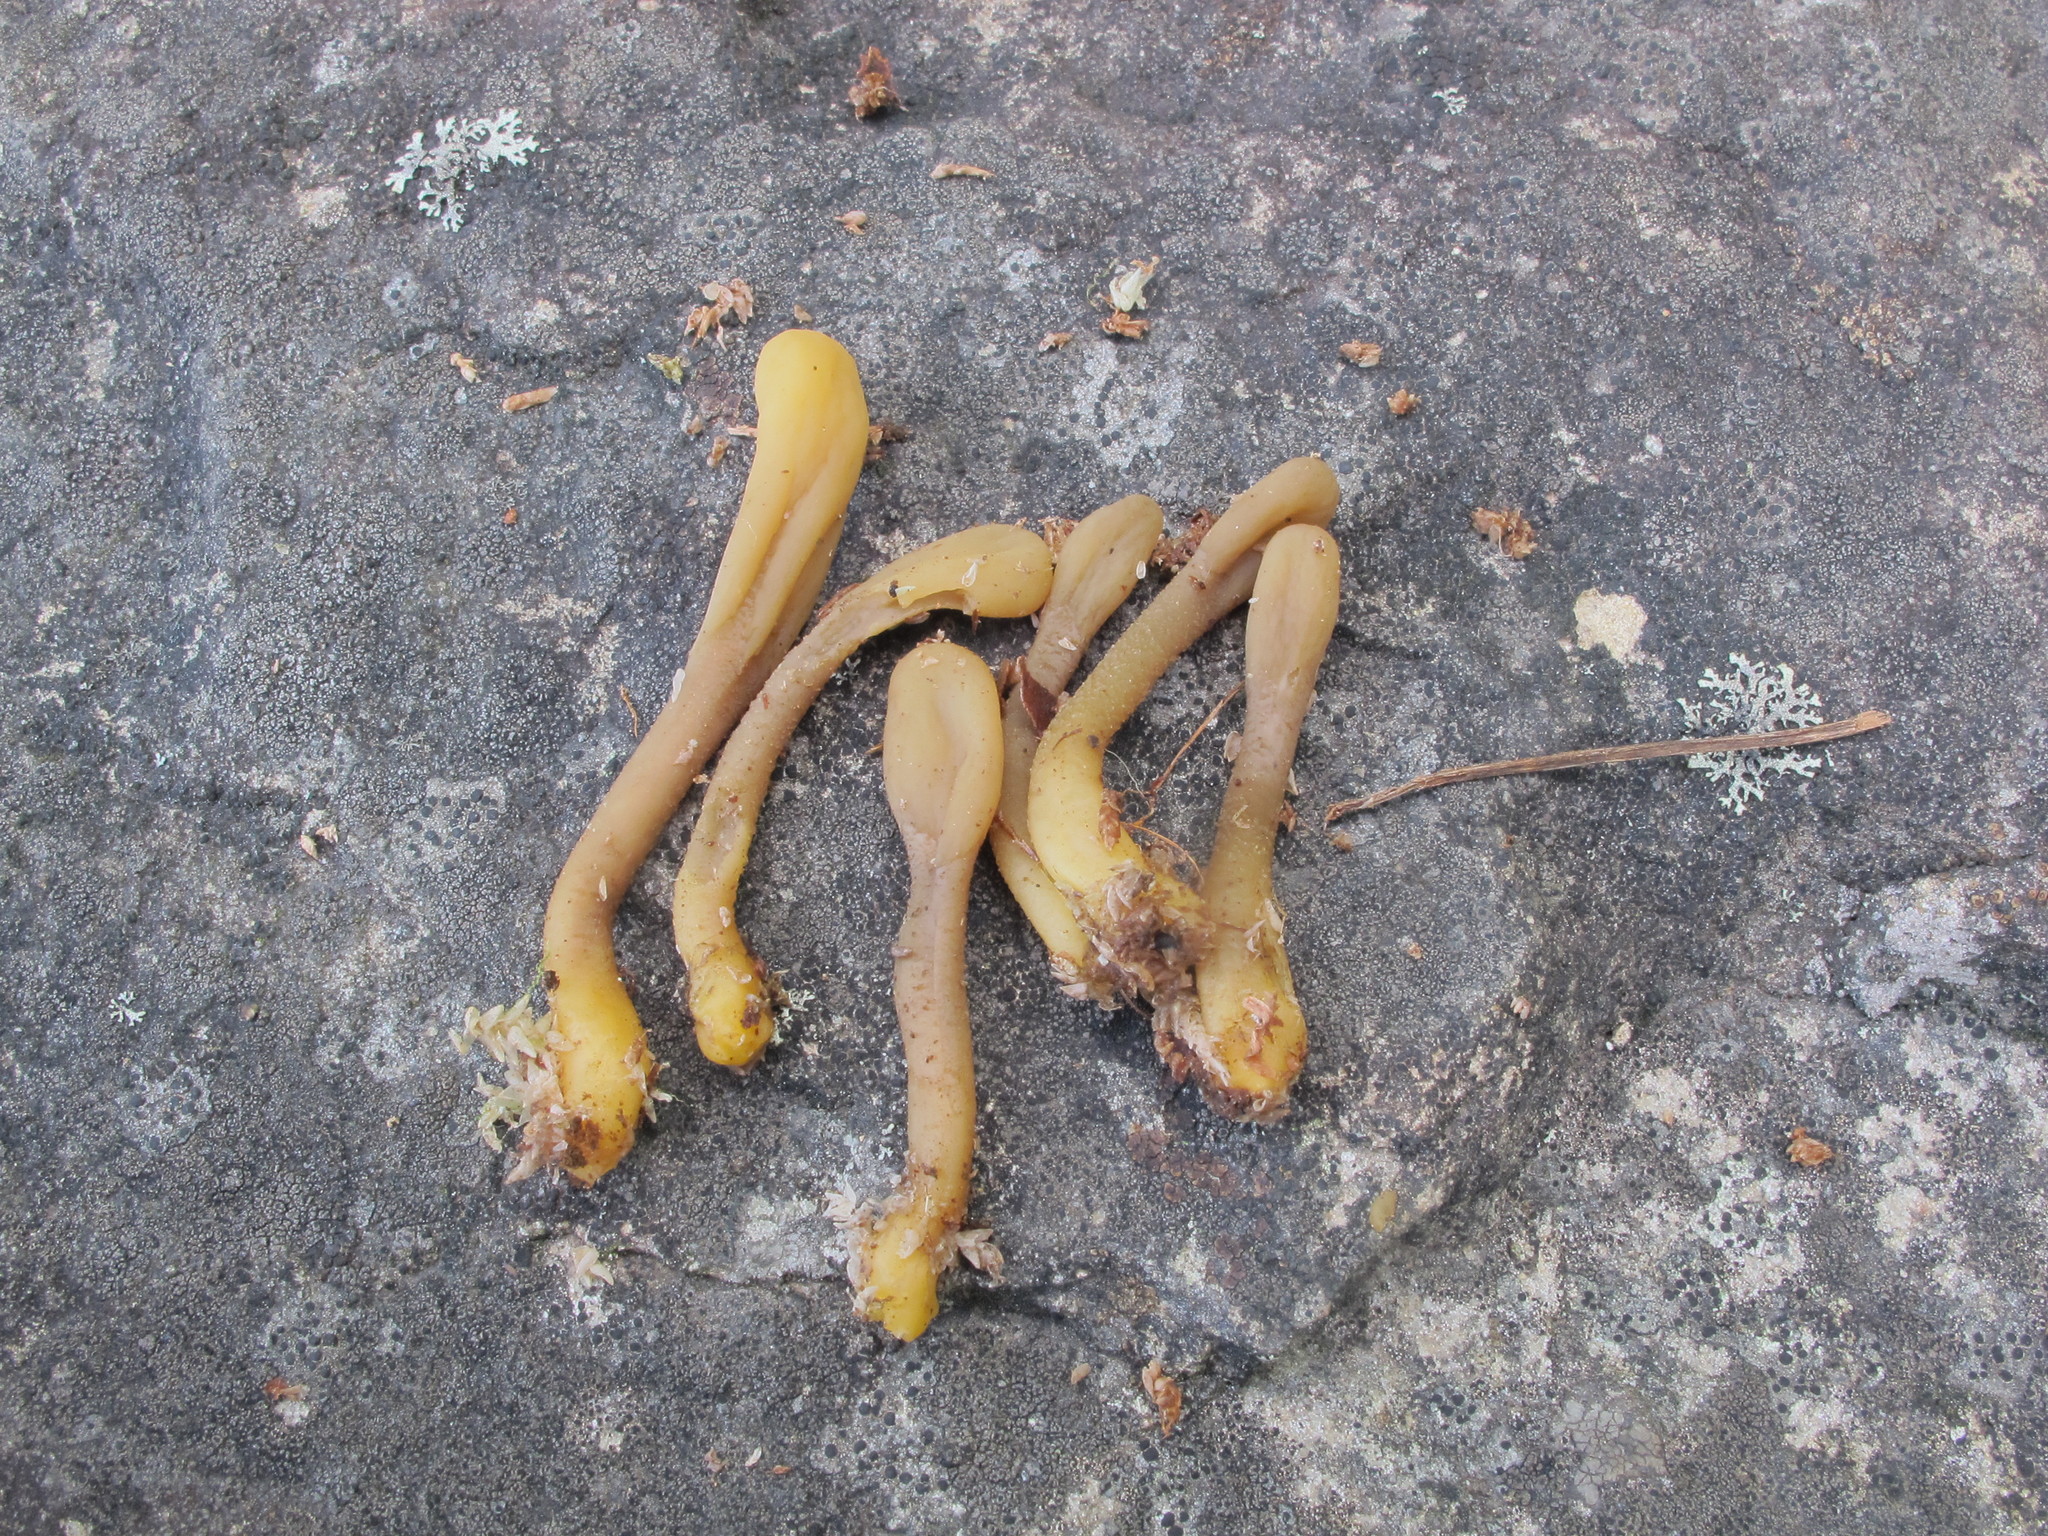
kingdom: Fungi
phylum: Ascomycota
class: Leotiomycetes
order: Leotiales
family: Leotiaceae
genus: Microglossum
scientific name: Microglossum fumosum
